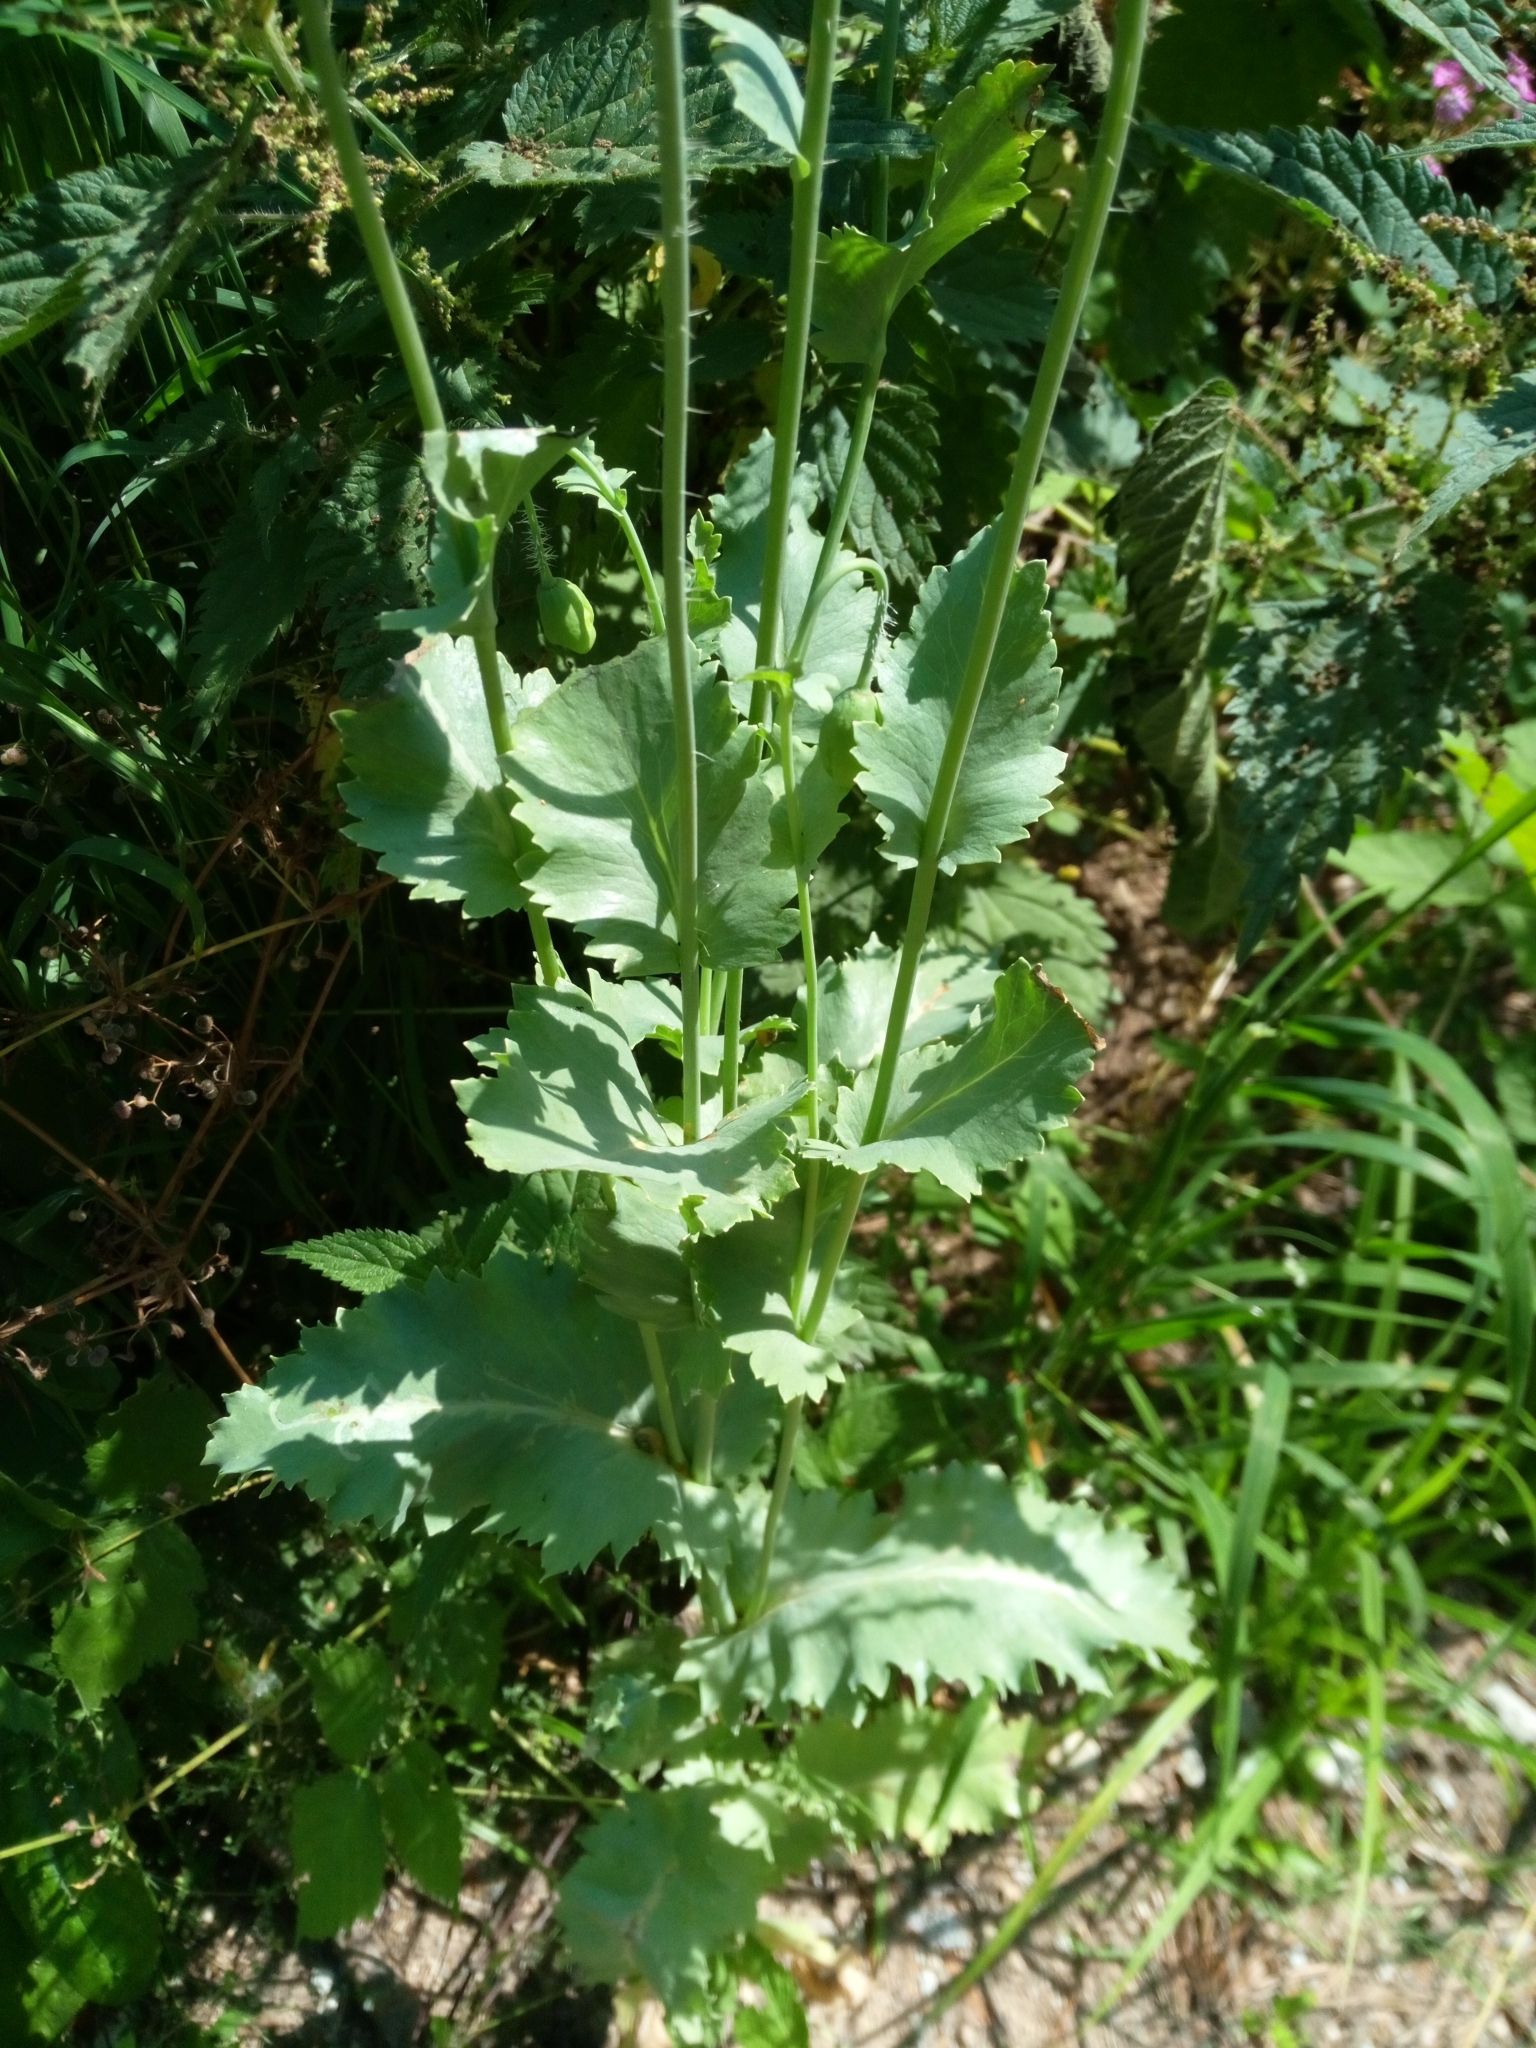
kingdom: Plantae
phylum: Tracheophyta
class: Magnoliopsida
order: Ranunculales
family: Papaveraceae
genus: Papaver
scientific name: Papaver somniferum
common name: Opium poppy
